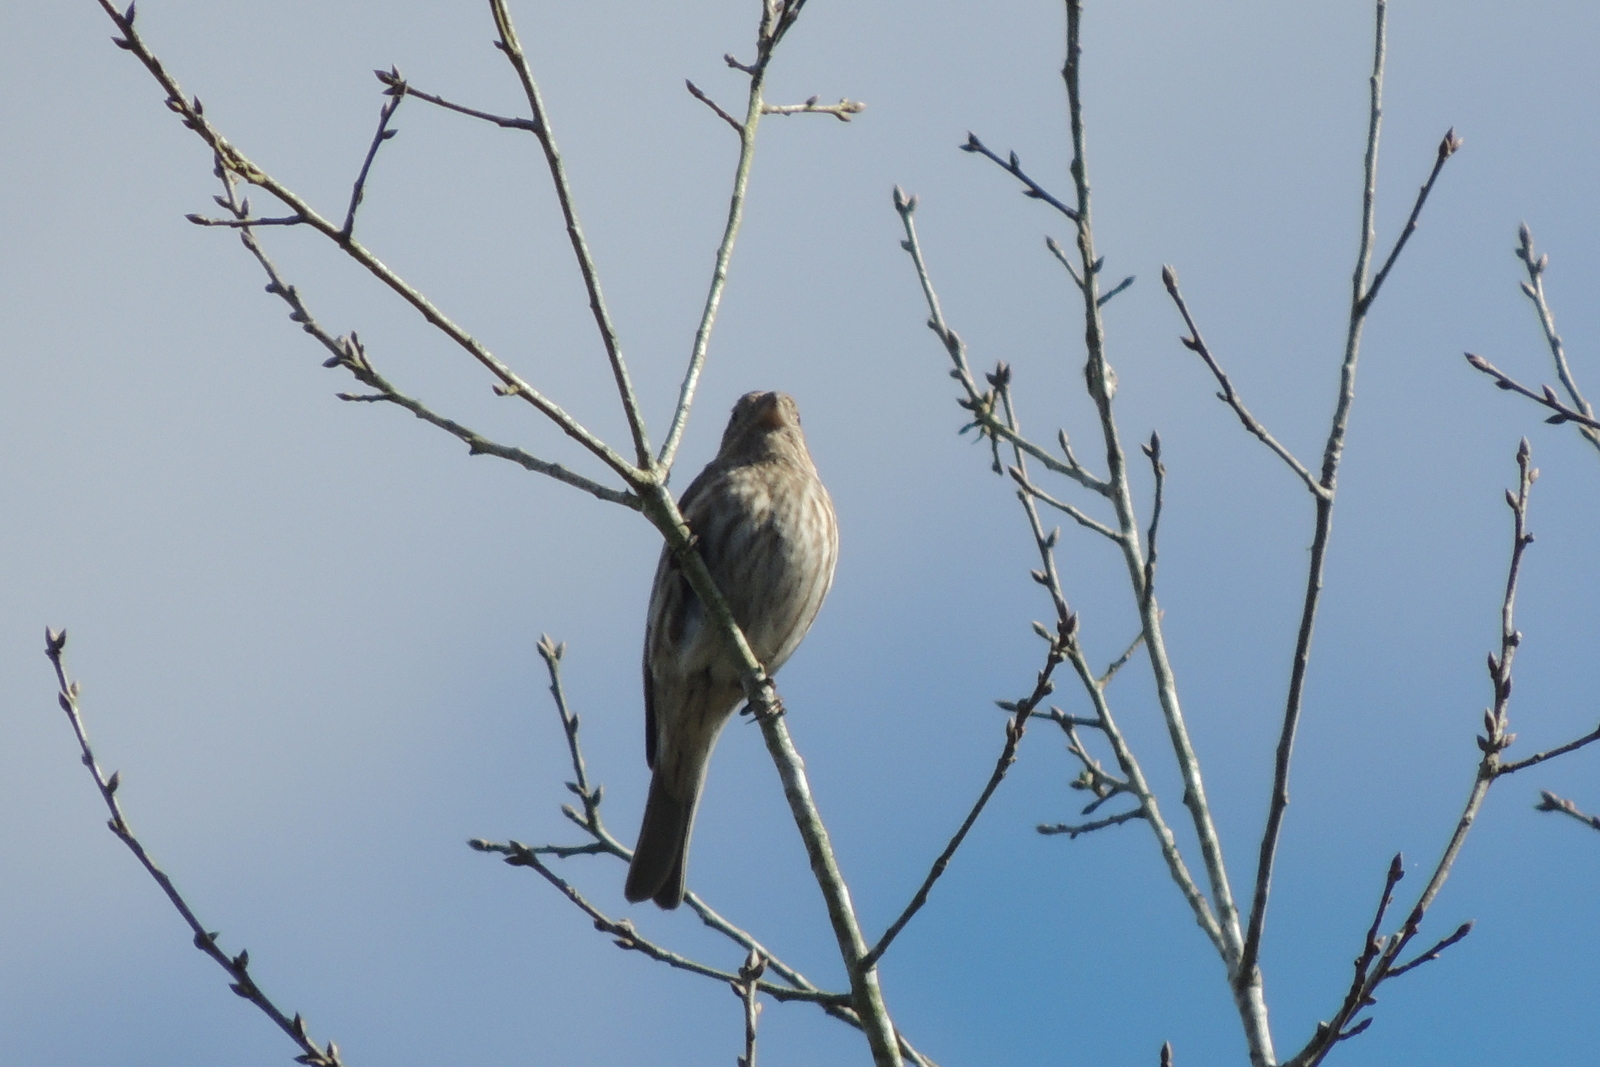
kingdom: Animalia
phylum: Chordata
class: Aves
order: Passeriformes
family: Fringillidae
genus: Haemorhous
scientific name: Haemorhous mexicanus
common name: House finch
